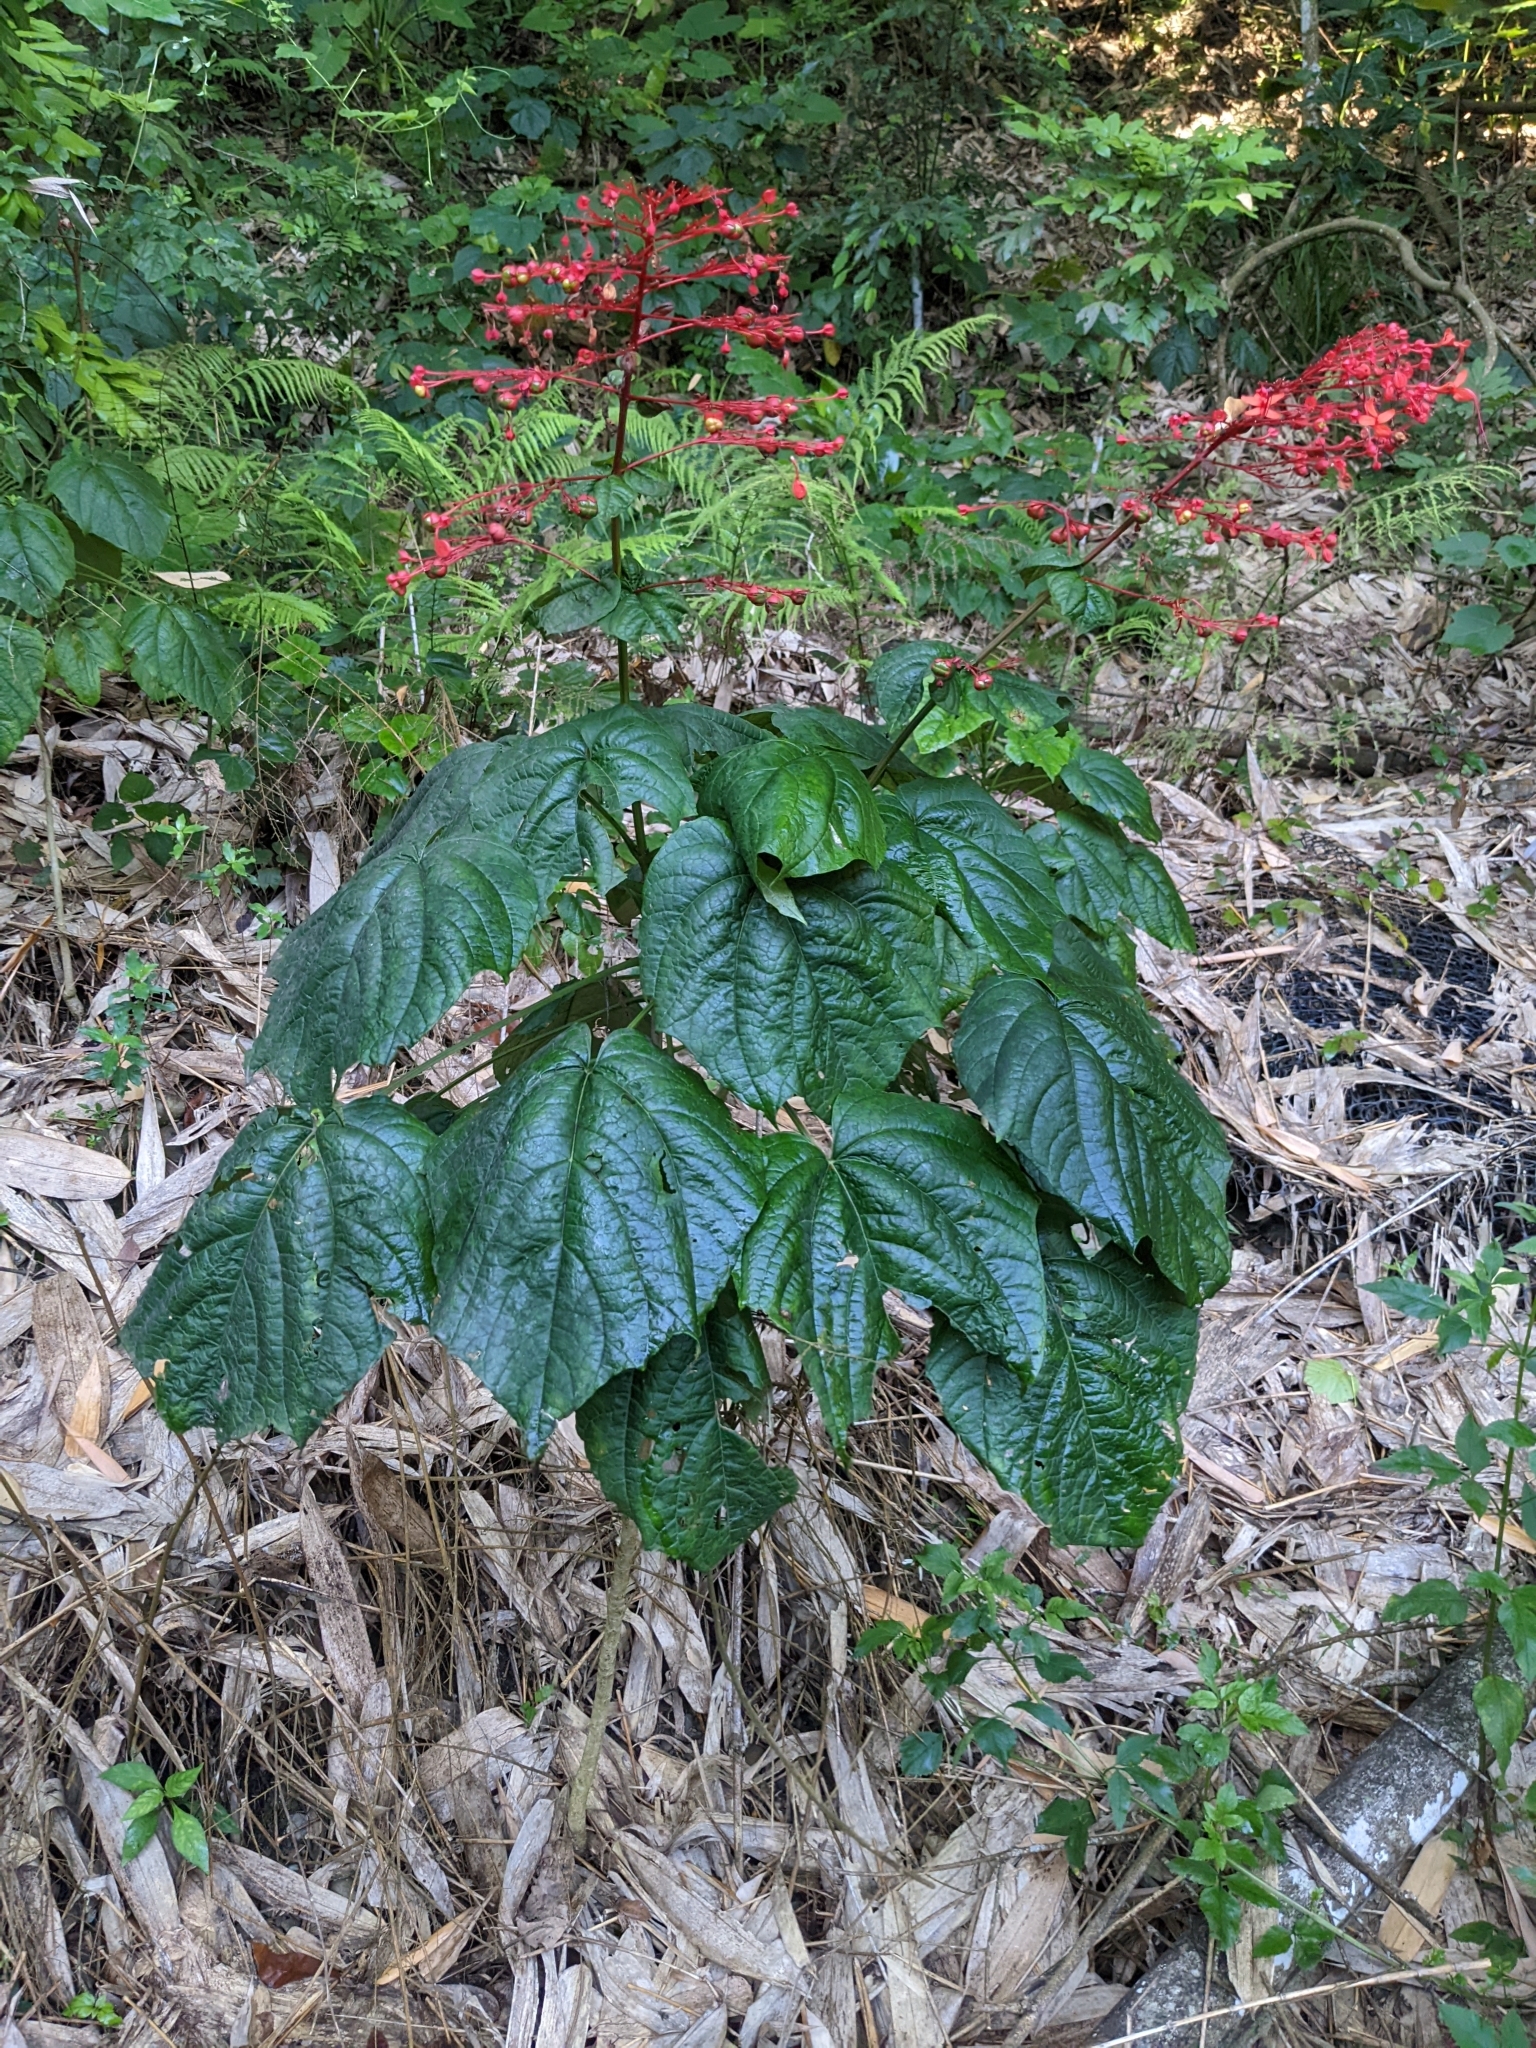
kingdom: Plantae
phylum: Tracheophyta
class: Magnoliopsida
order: Lamiales
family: Lamiaceae
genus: Clerodendrum
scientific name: Clerodendrum japonicum
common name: Japanese glorybower
